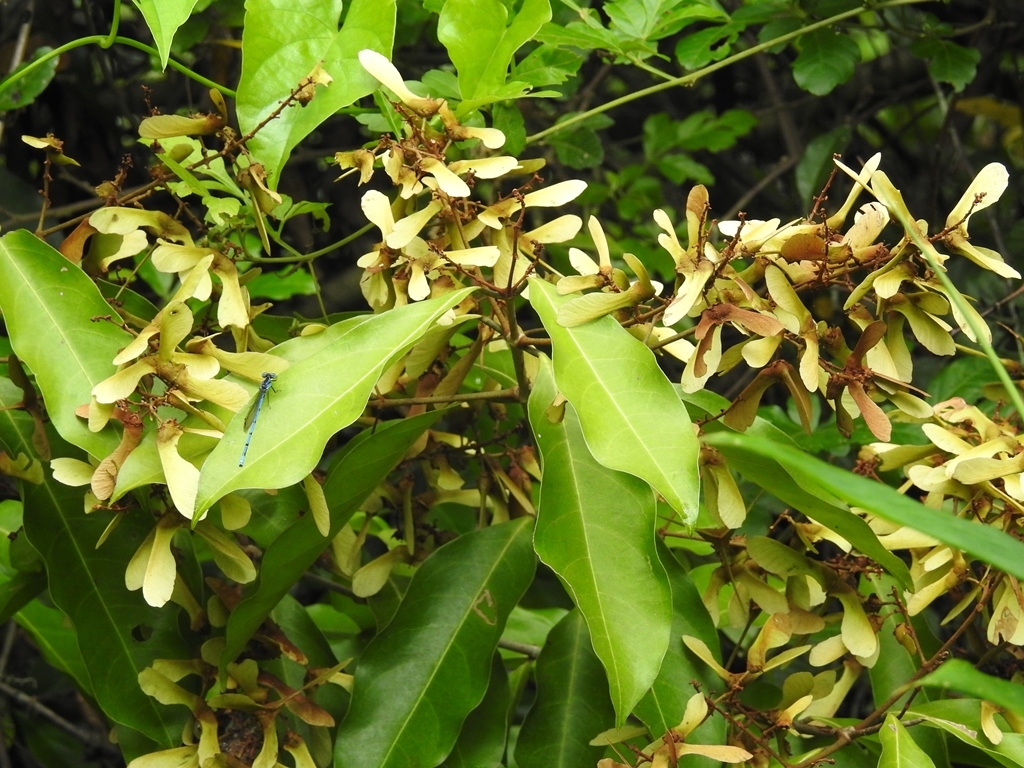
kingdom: Plantae
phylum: Tracheophyta
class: Magnoliopsida
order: Malpighiales
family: Malpighiaceae
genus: Heteropterys
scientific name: Heteropterys laurifolia
